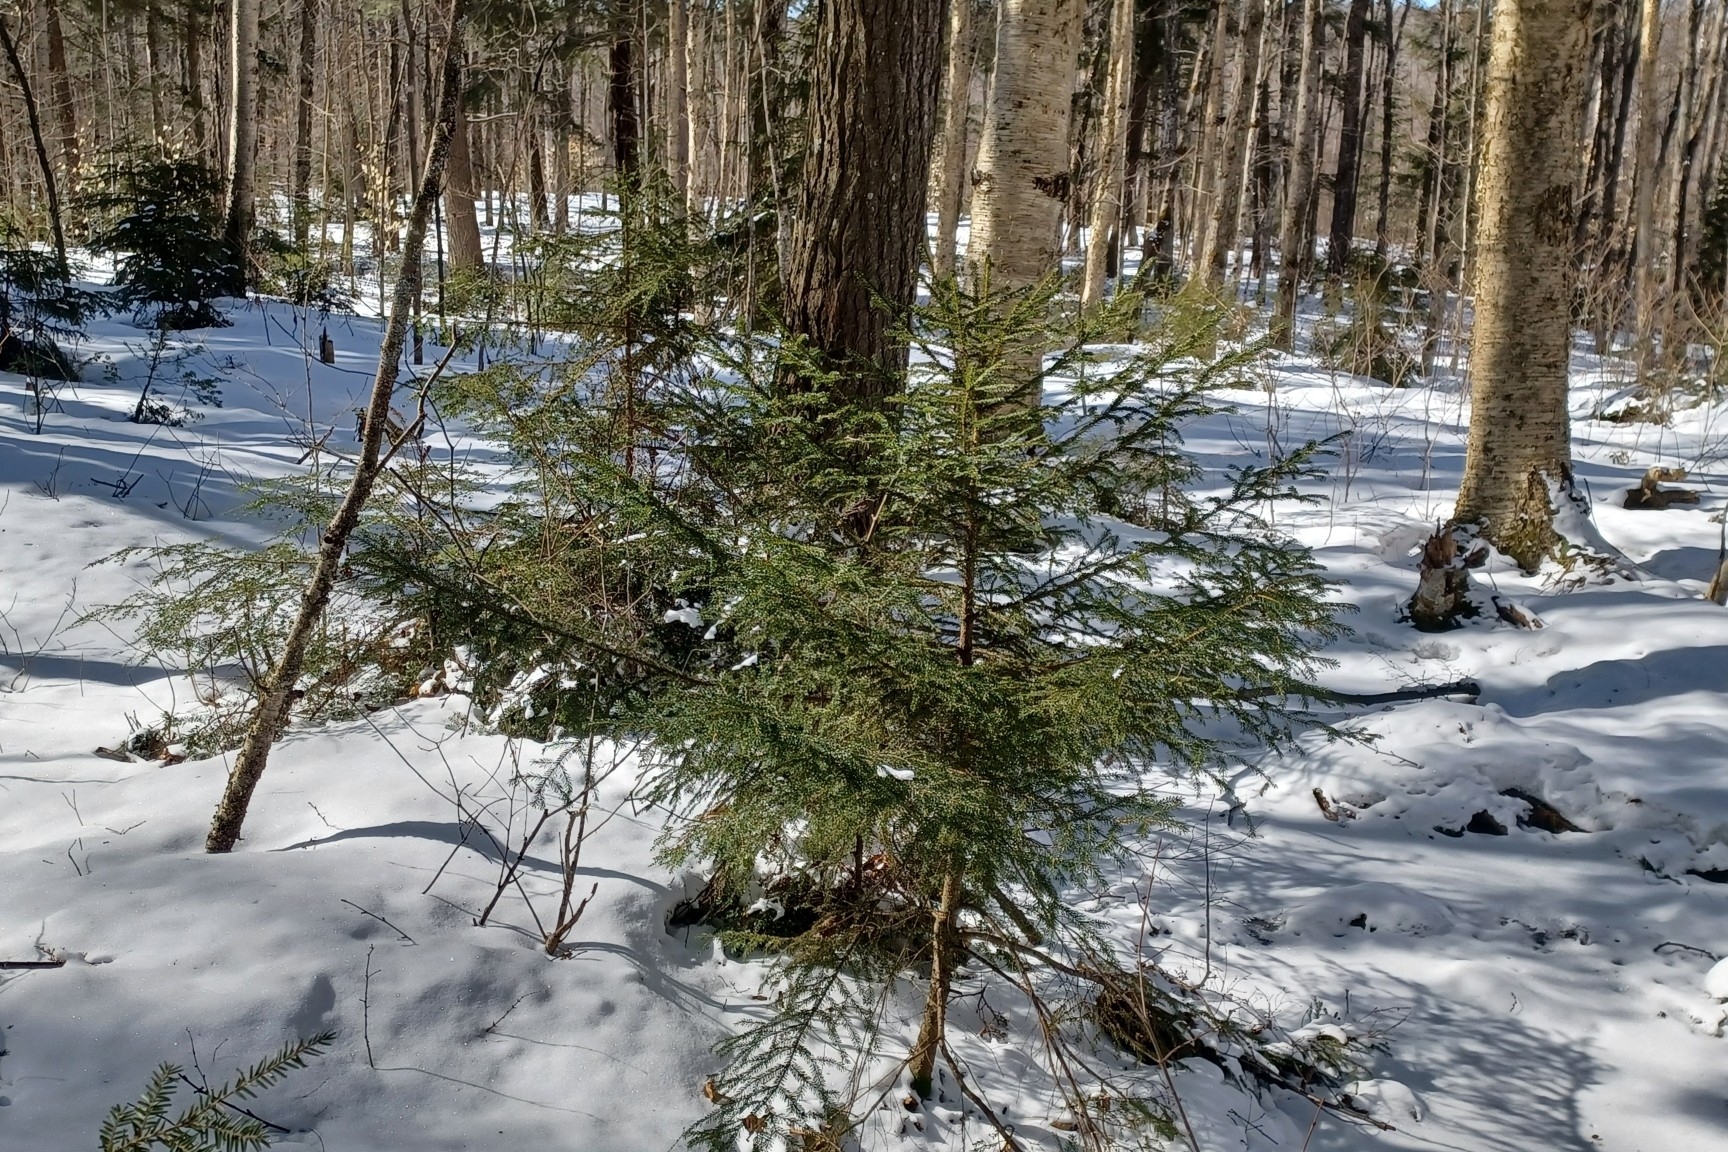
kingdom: Plantae
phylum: Tracheophyta
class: Pinopsida
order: Pinales
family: Pinaceae
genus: Picea
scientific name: Picea rubens
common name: Red spruce
